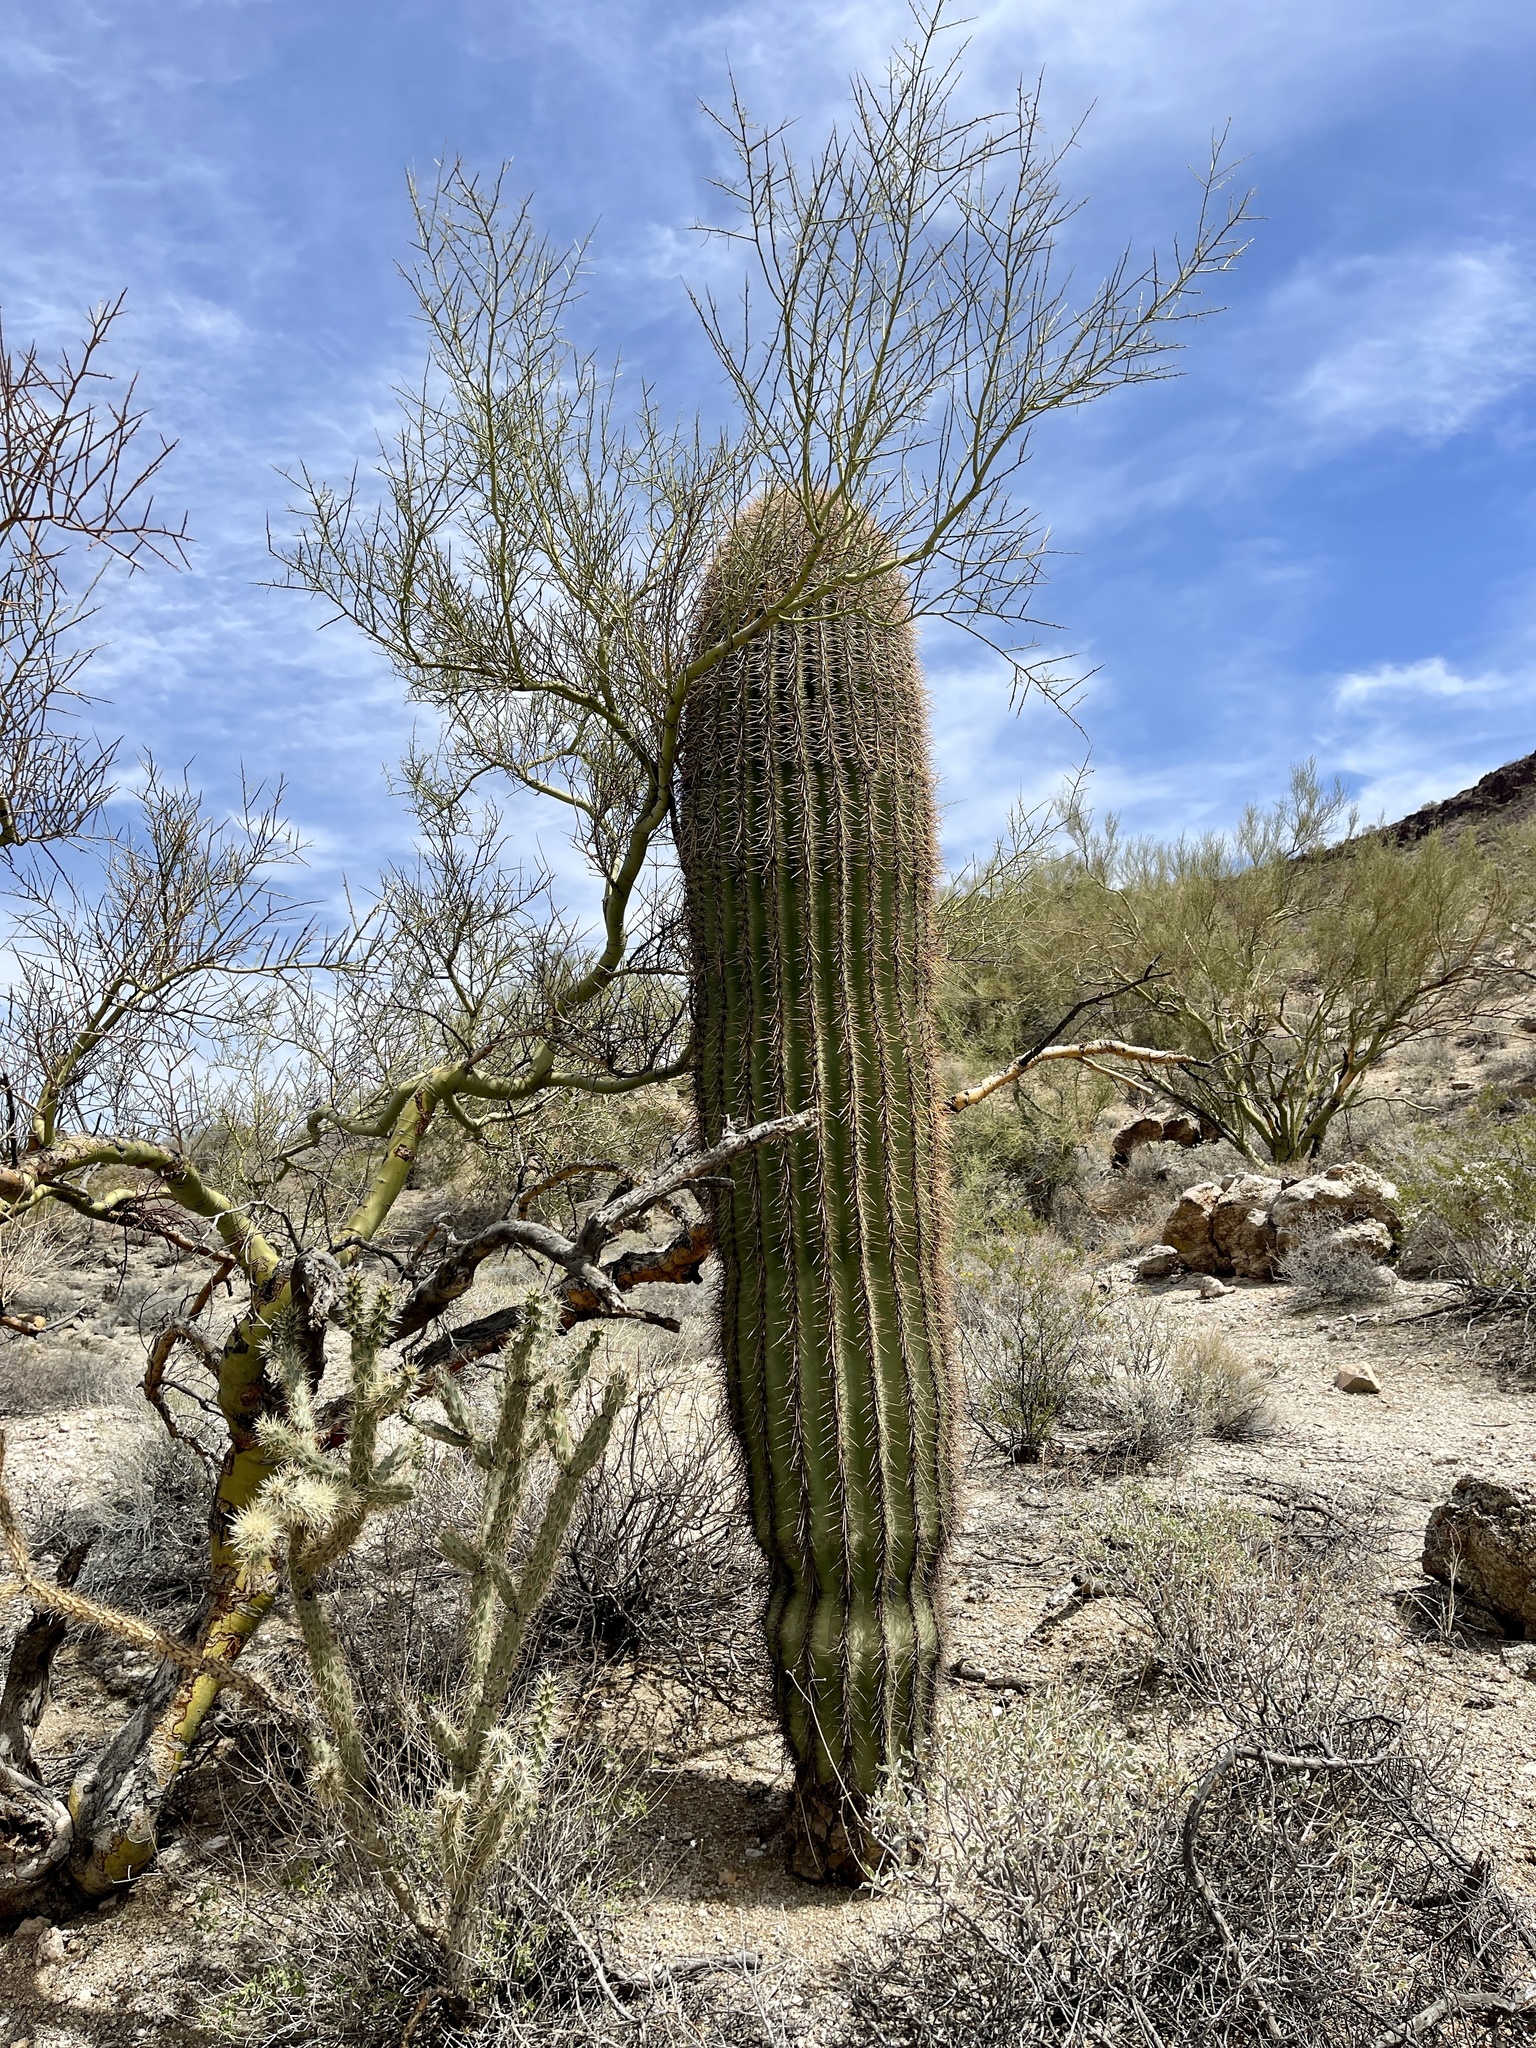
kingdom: Plantae
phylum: Tracheophyta
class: Magnoliopsida
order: Caryophyllales
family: Cactaceae
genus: Carnegiea
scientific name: Carnegiea gigantea
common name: Saguaro
